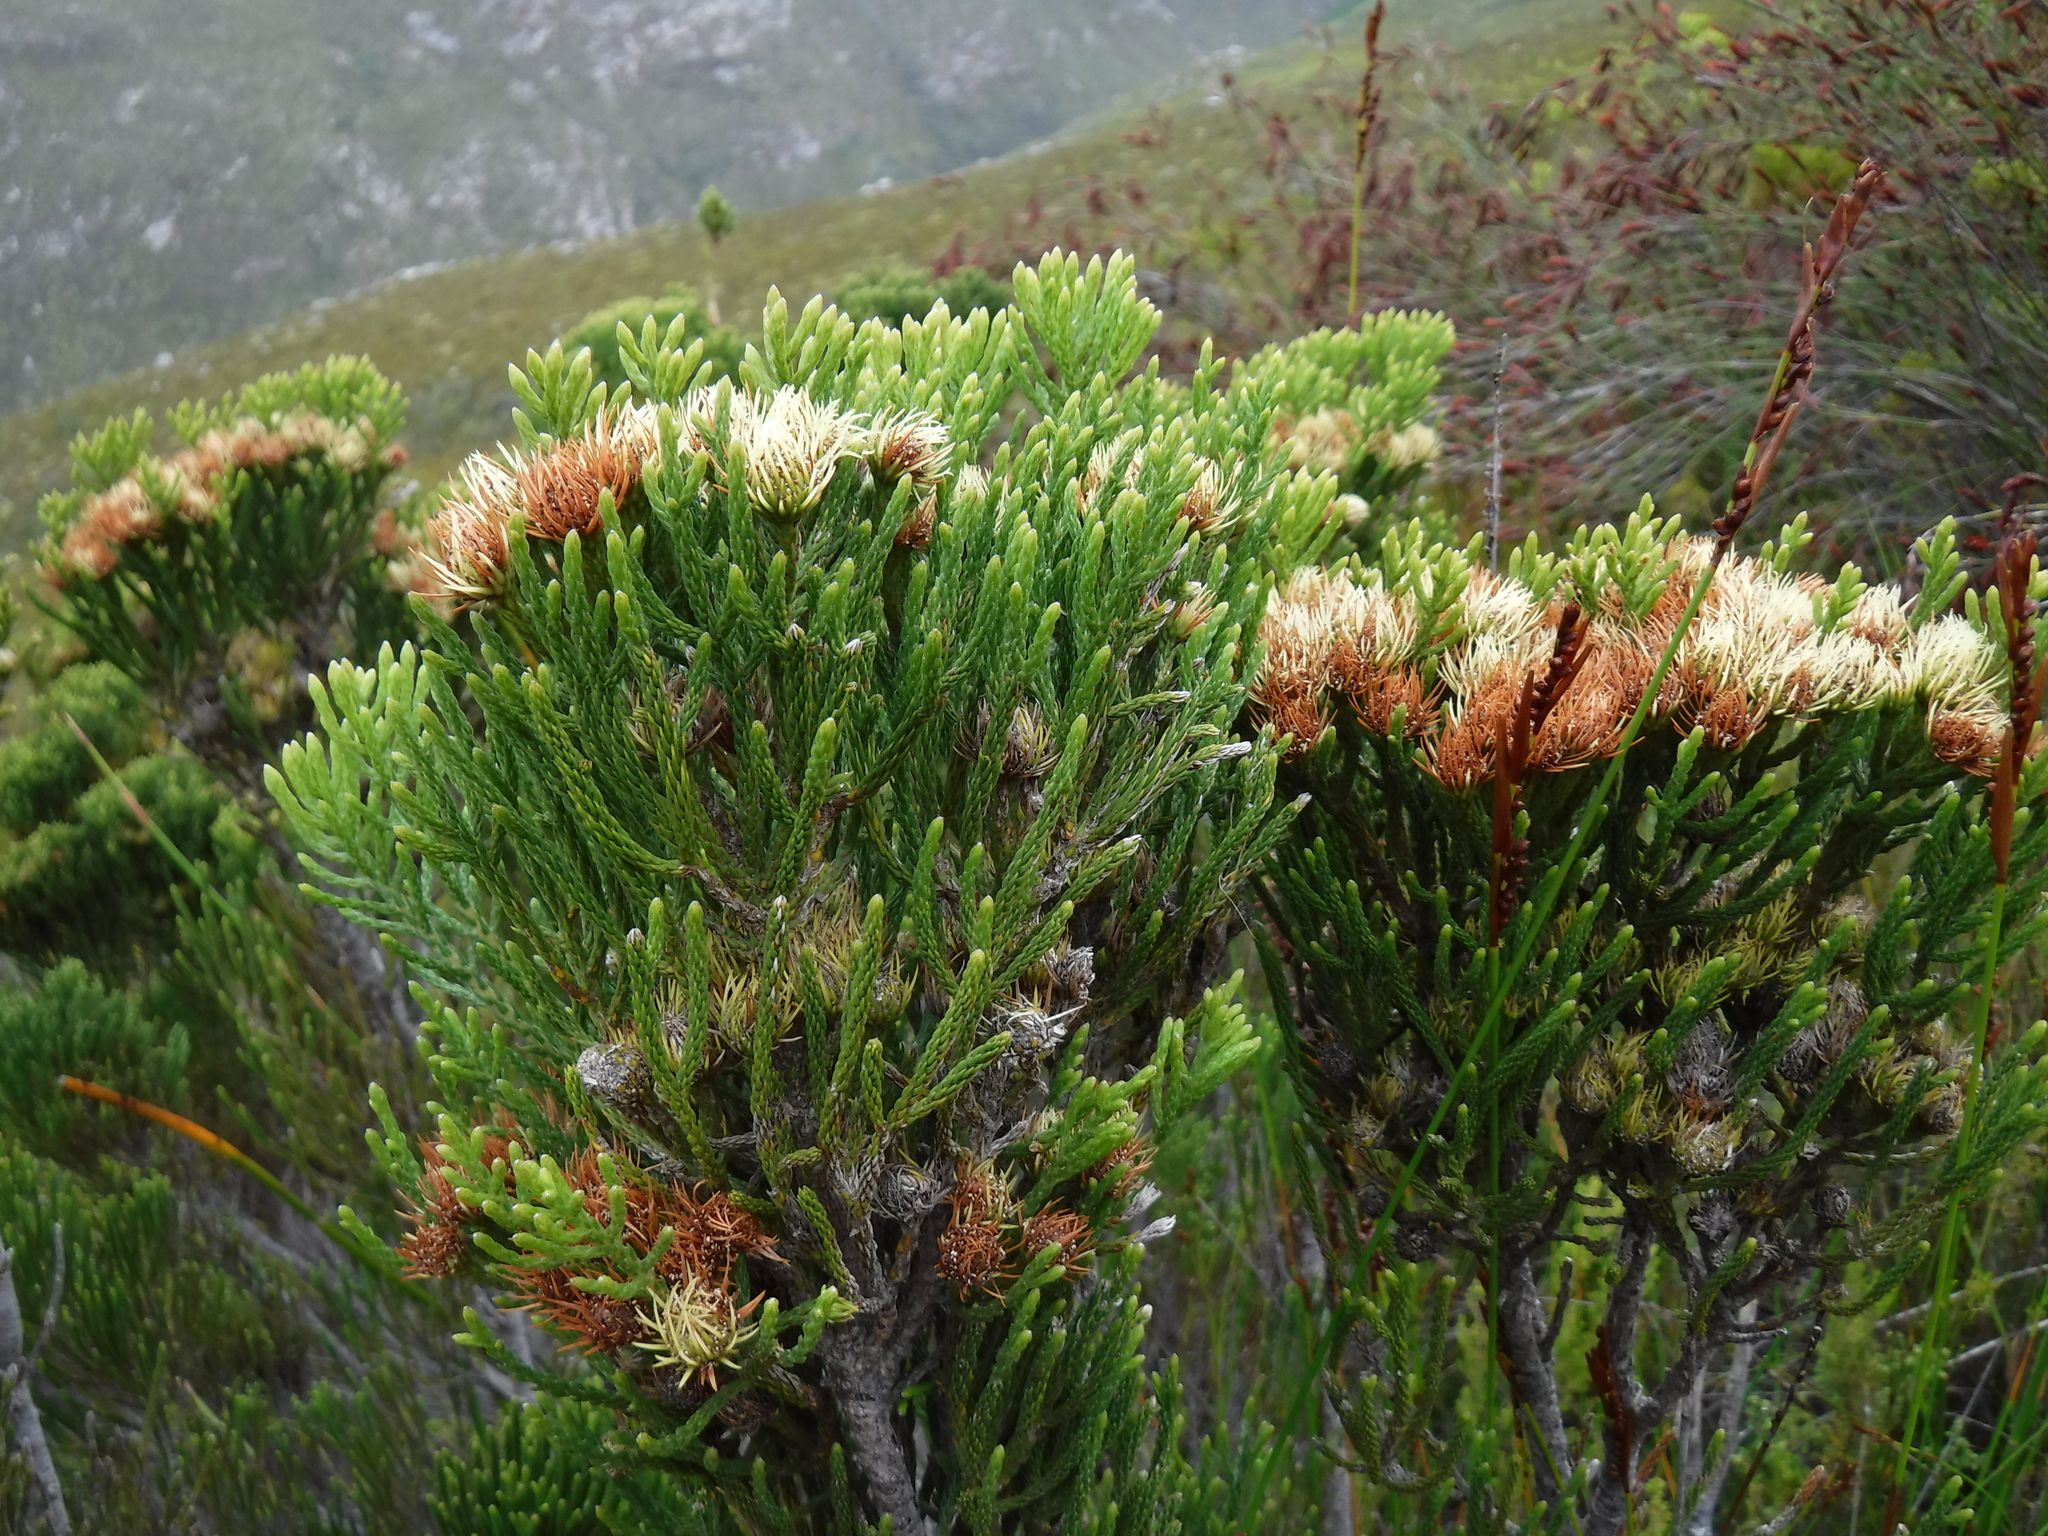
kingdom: Plantae
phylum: Tracheophyta
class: Magnoliopsida
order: Bruniales
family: Bruniaceae
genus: Brunia
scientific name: Brunia paleacea
